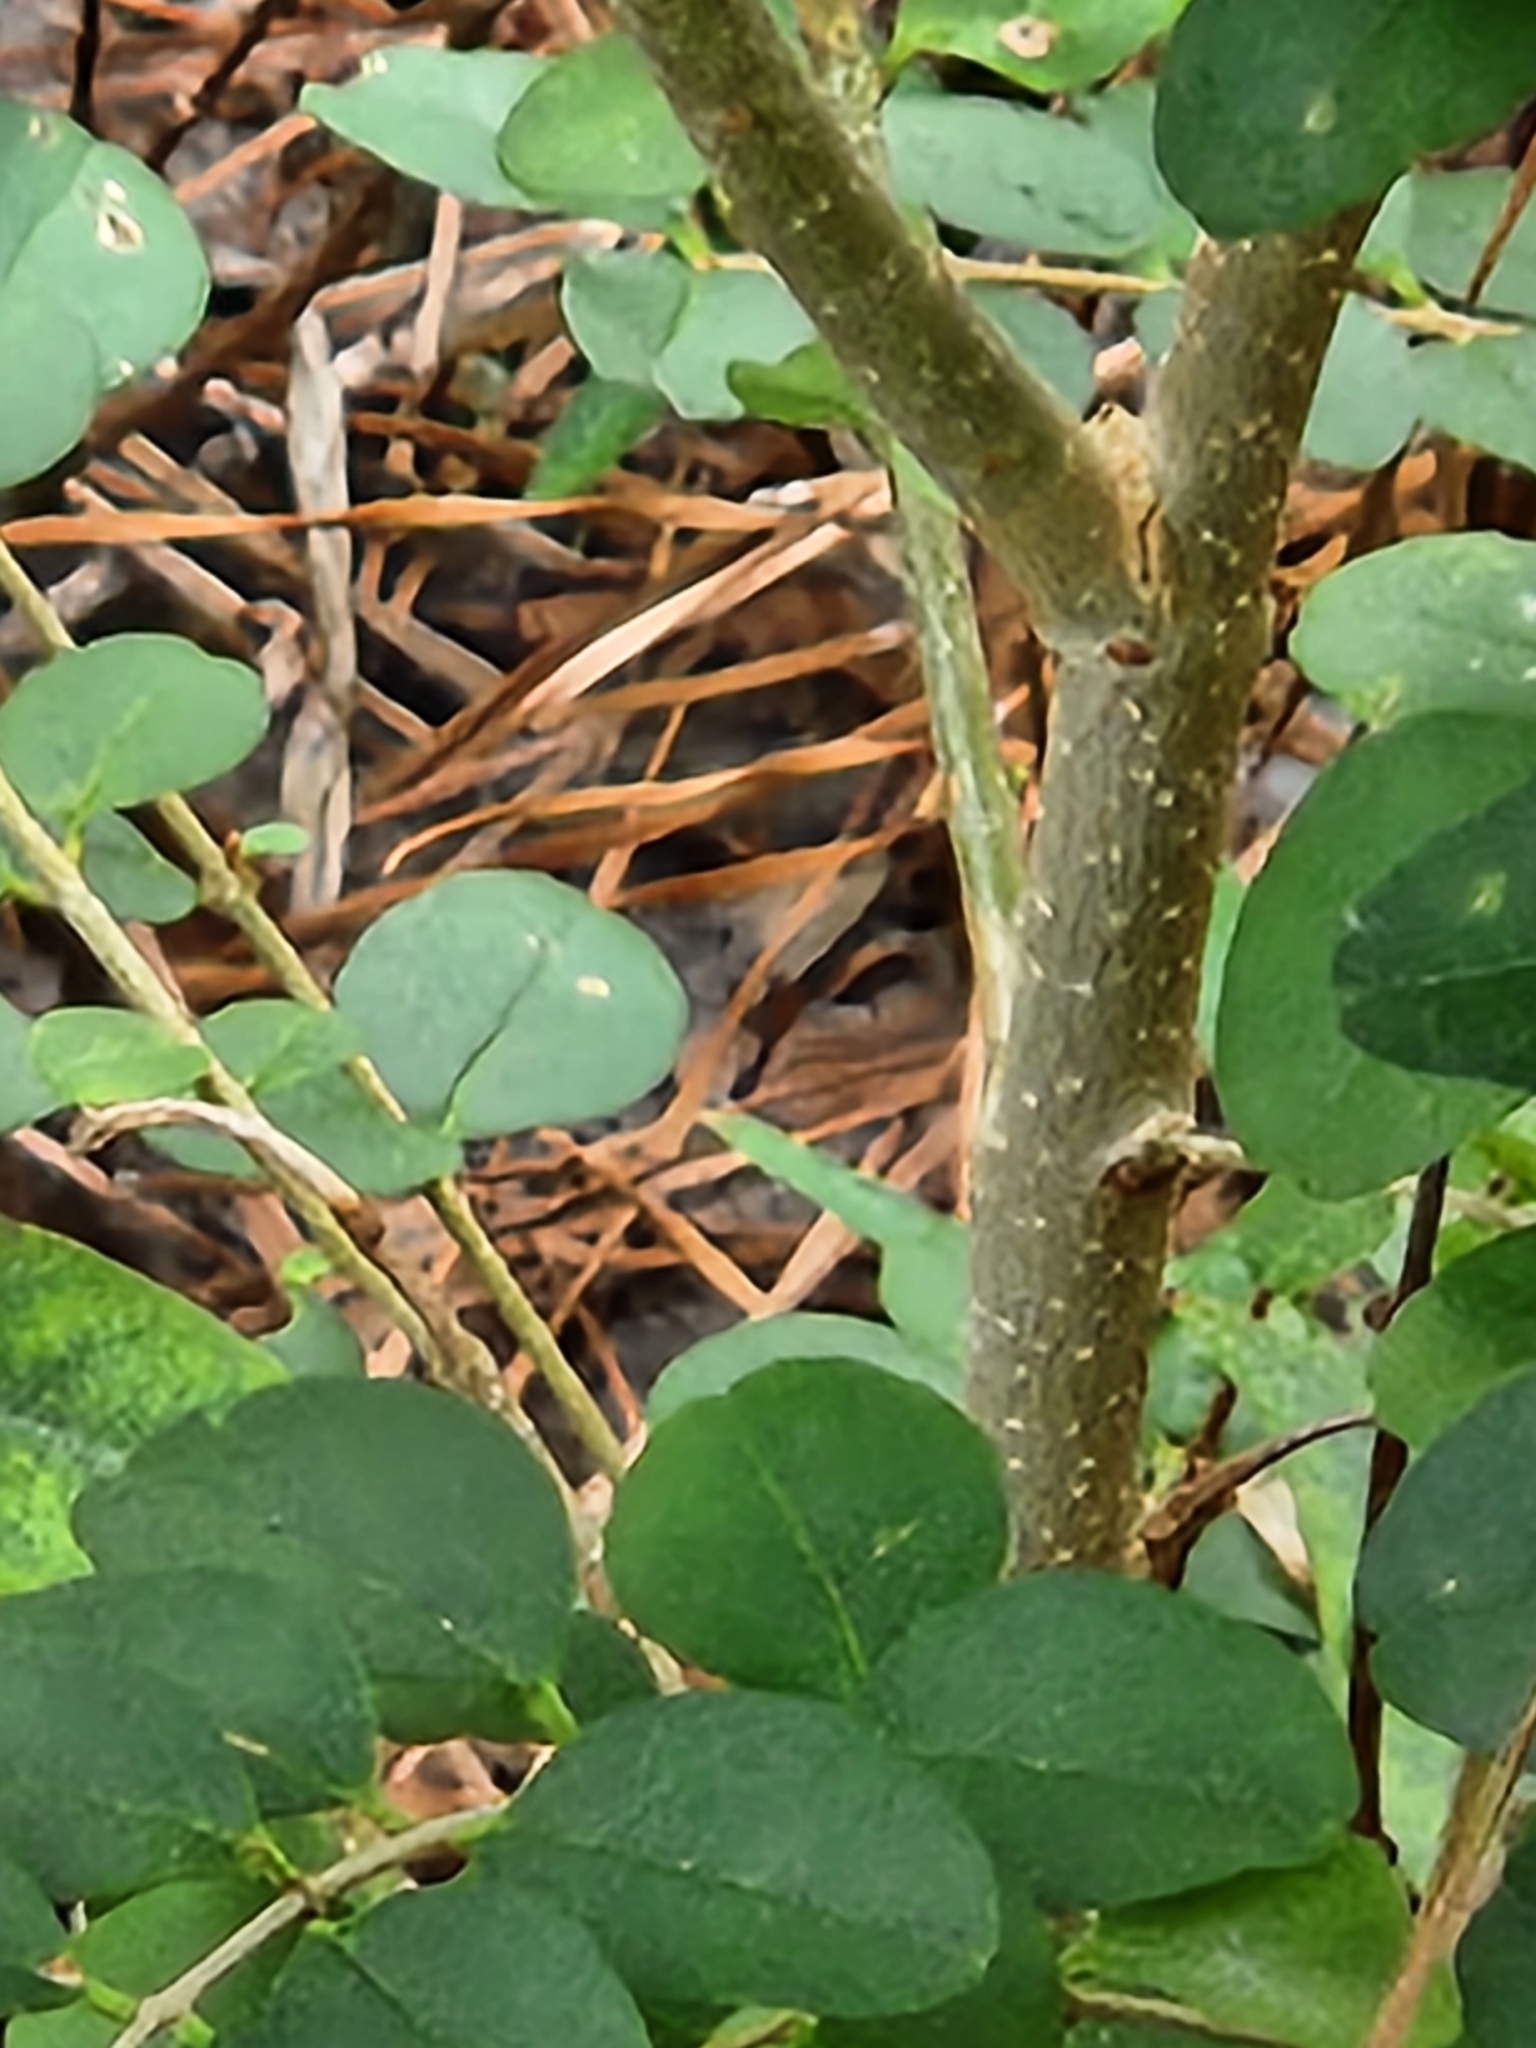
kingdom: Plantae
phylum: Tracheophyta
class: Magnoliopsida
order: Lamiales
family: Oleaceae
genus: Ligustrum
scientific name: Ligustrum sinense
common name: Chinese privet
